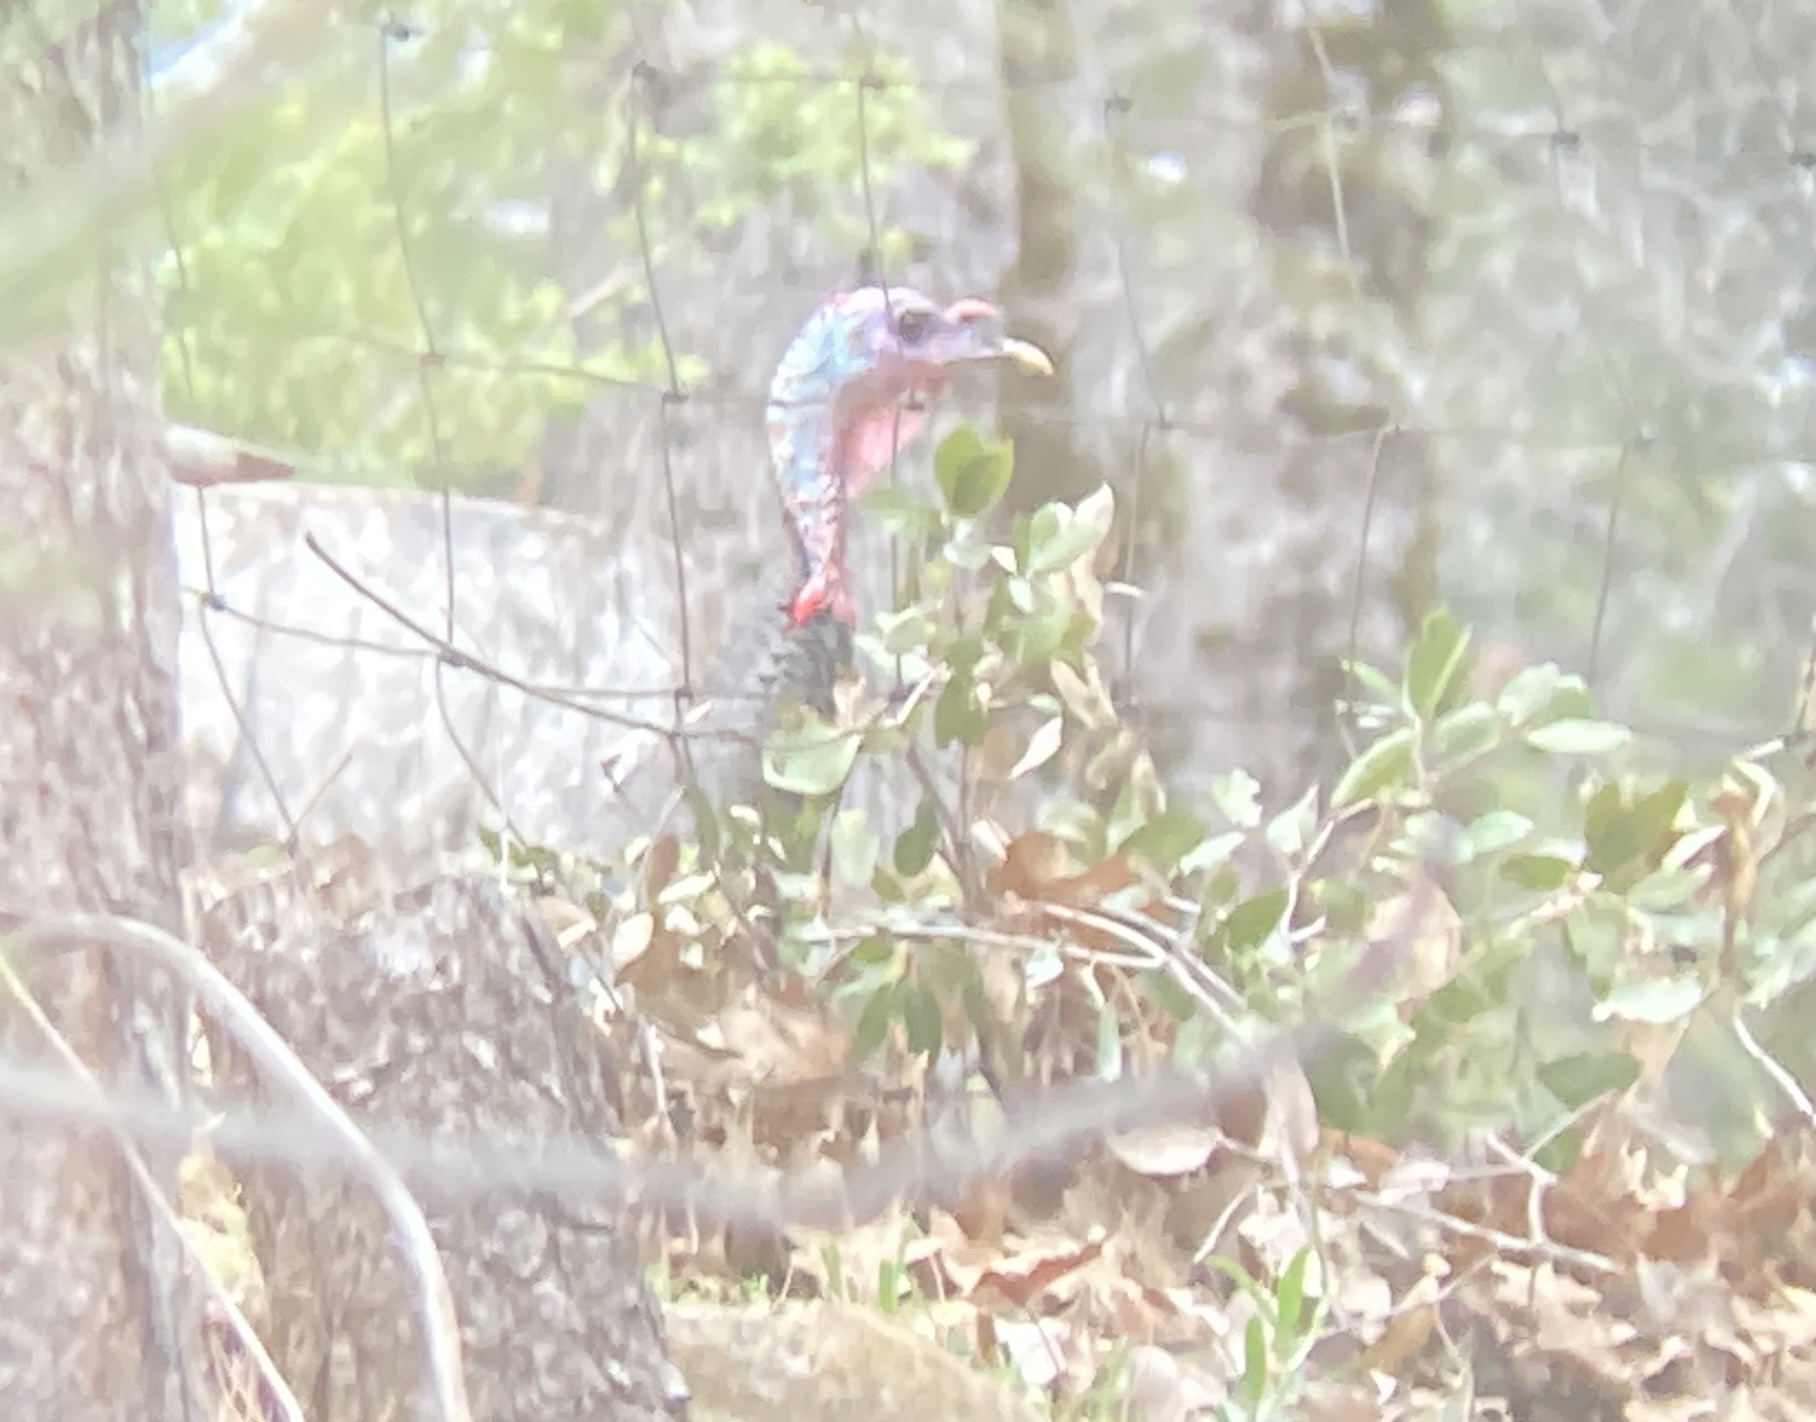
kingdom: Animalia
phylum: Chordata
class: Aves
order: Galliformes
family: Phasianidae
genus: Meleagris
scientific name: Meleagris gallopavo
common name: Wild turkey
